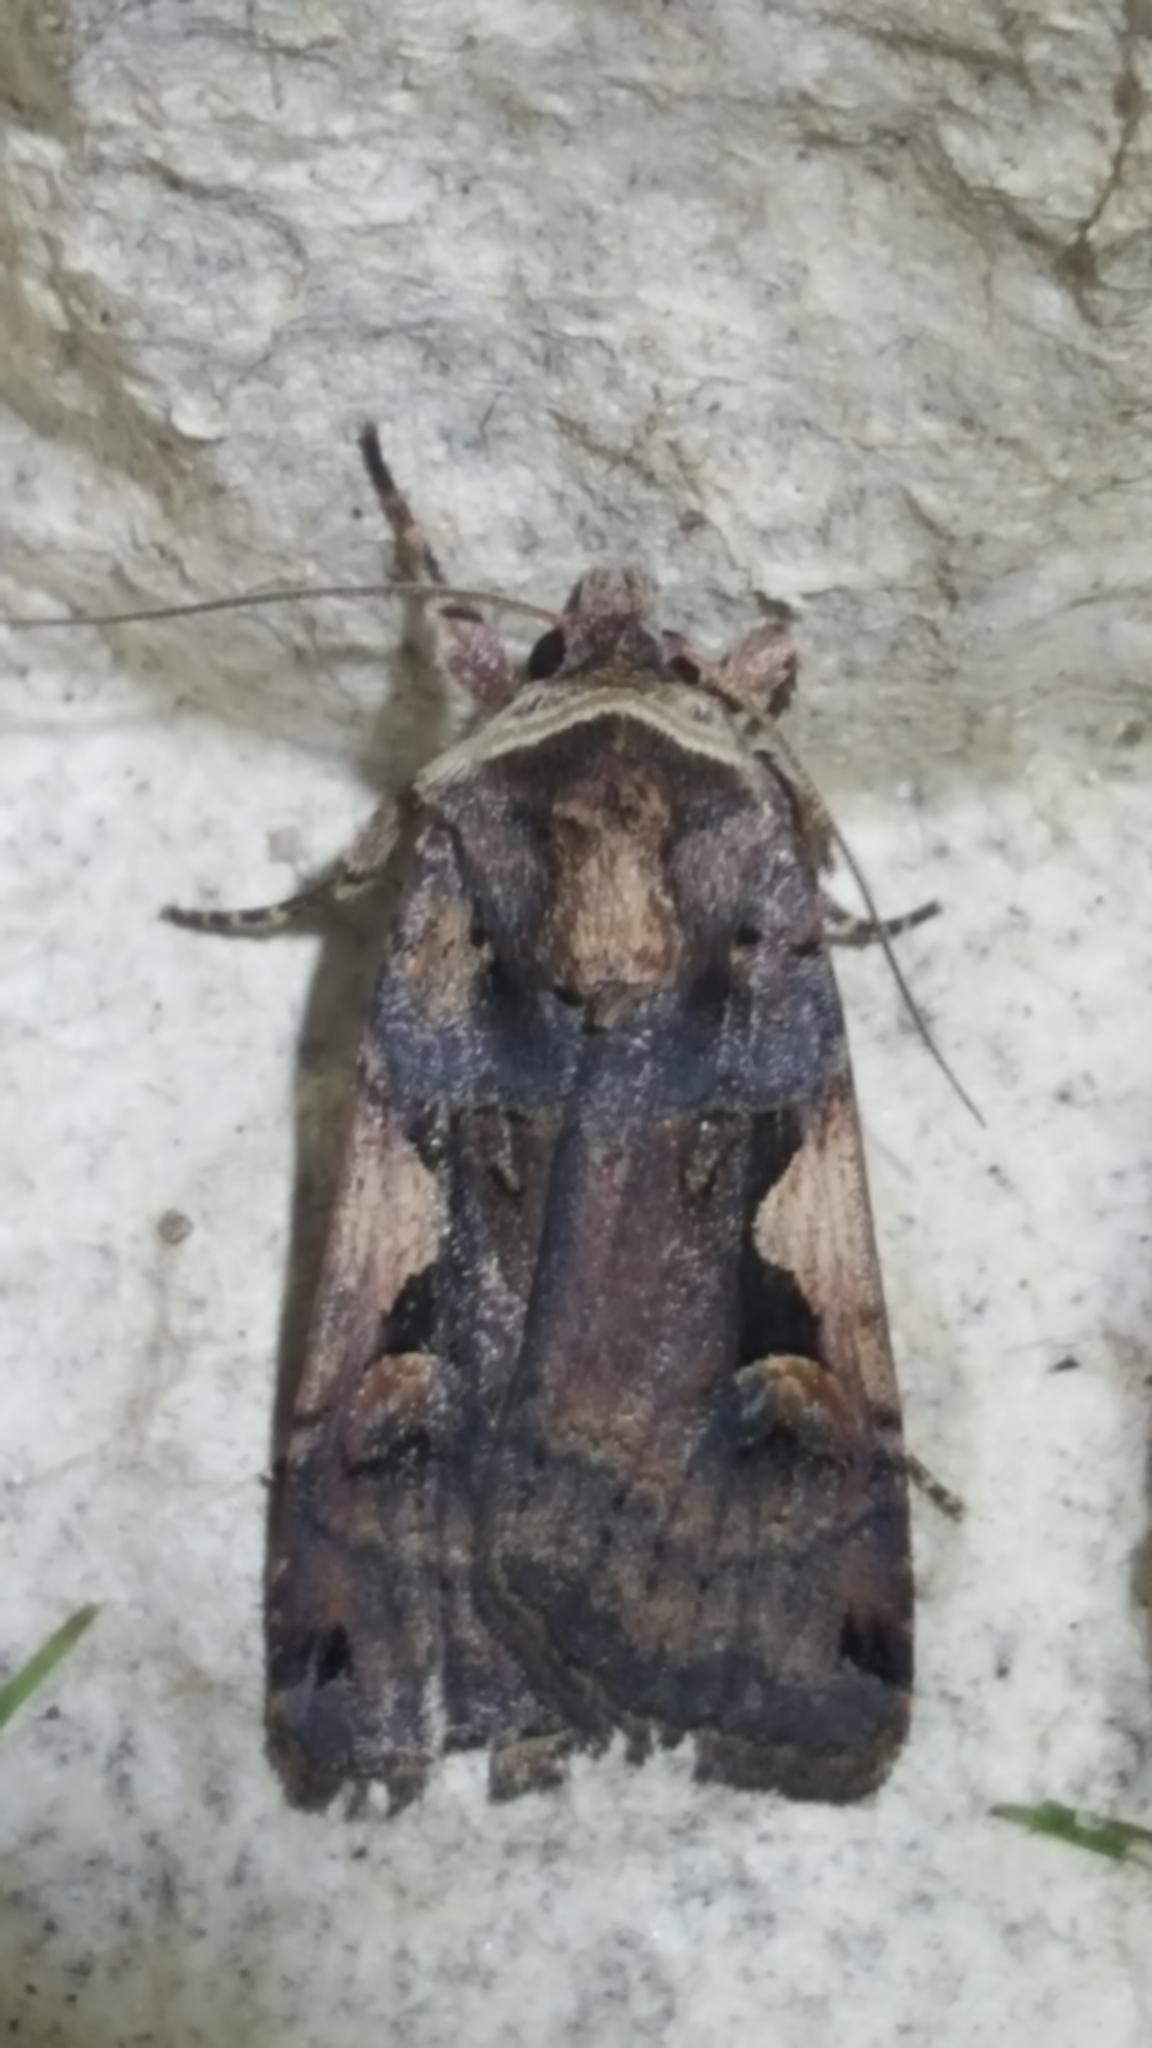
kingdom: Animalia
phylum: Arthropoda
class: Insecta
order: Lepidoptera
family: Noctuidae
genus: Xestia
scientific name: Xestia c-nigrum
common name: Setaceous hebrew character
